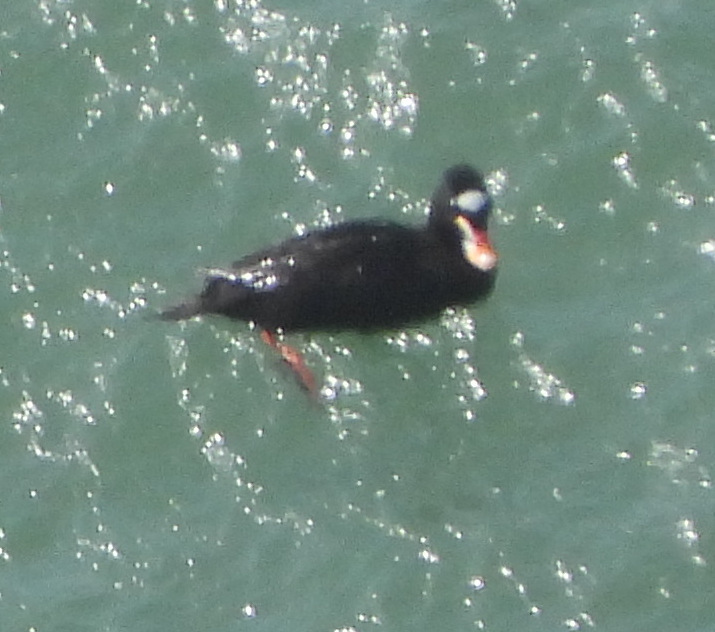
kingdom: Animalia
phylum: Chordata
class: Aves
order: Anseriformes
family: Anatidae
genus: Melanitta
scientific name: Melanitta perspicillata
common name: Surf scoter
